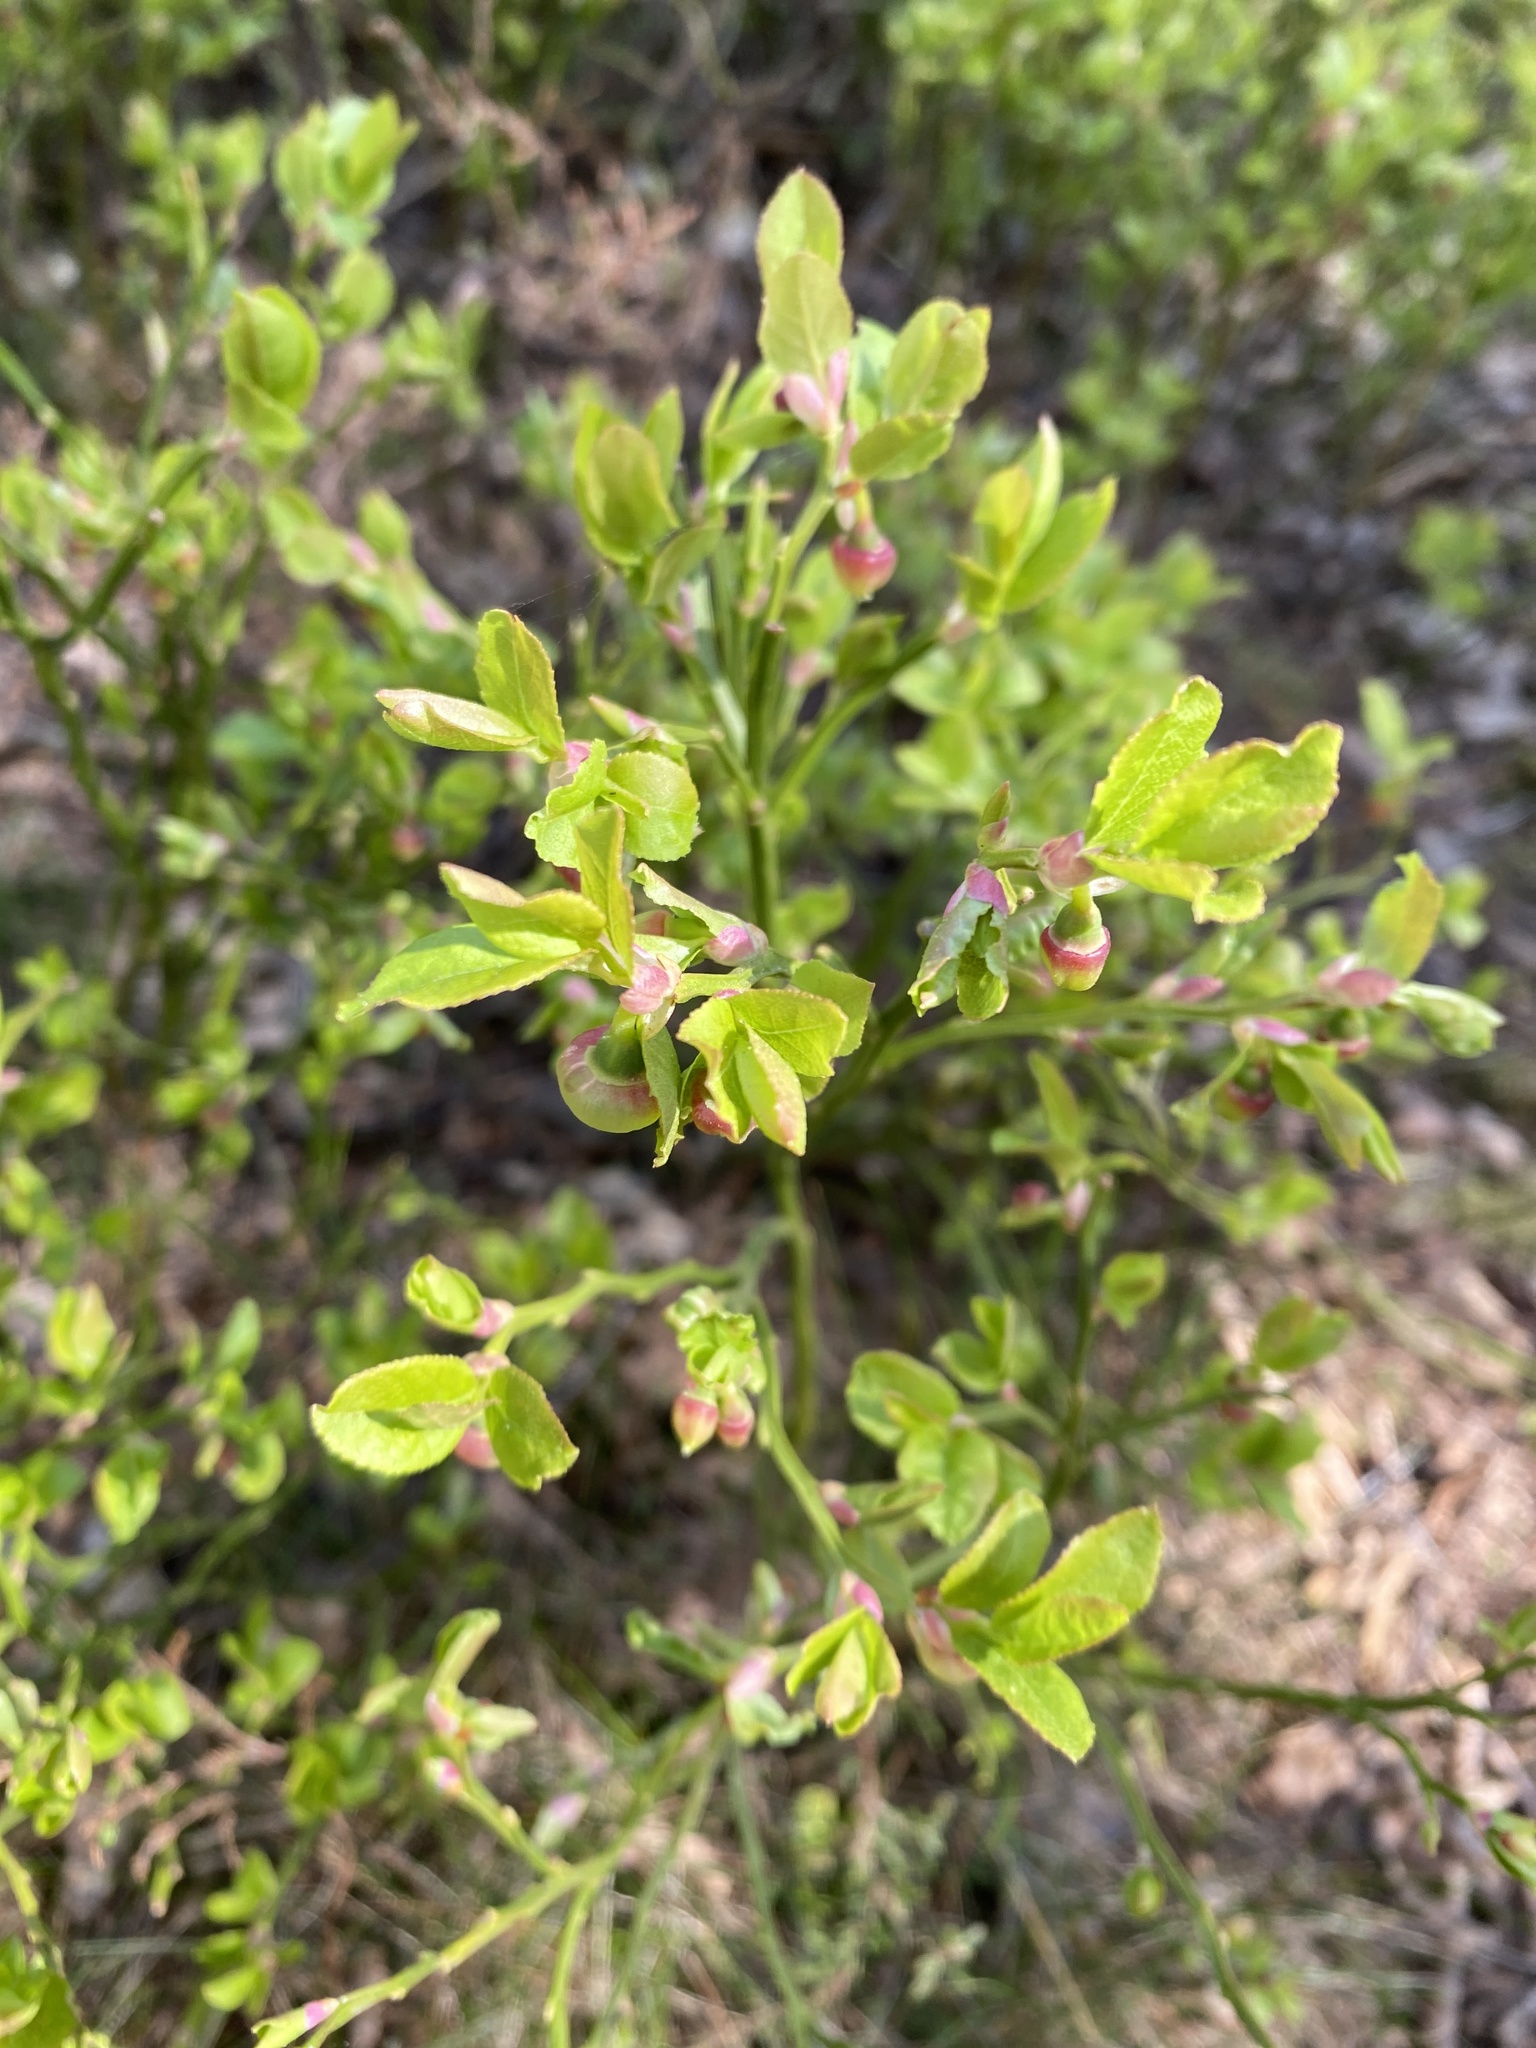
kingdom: Plantae
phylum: Tracheophyta
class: Magnoliopsida
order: Ericales
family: Ericaceae
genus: Vaccinium
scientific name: Vaccinium myrtillus
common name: Bilberry
